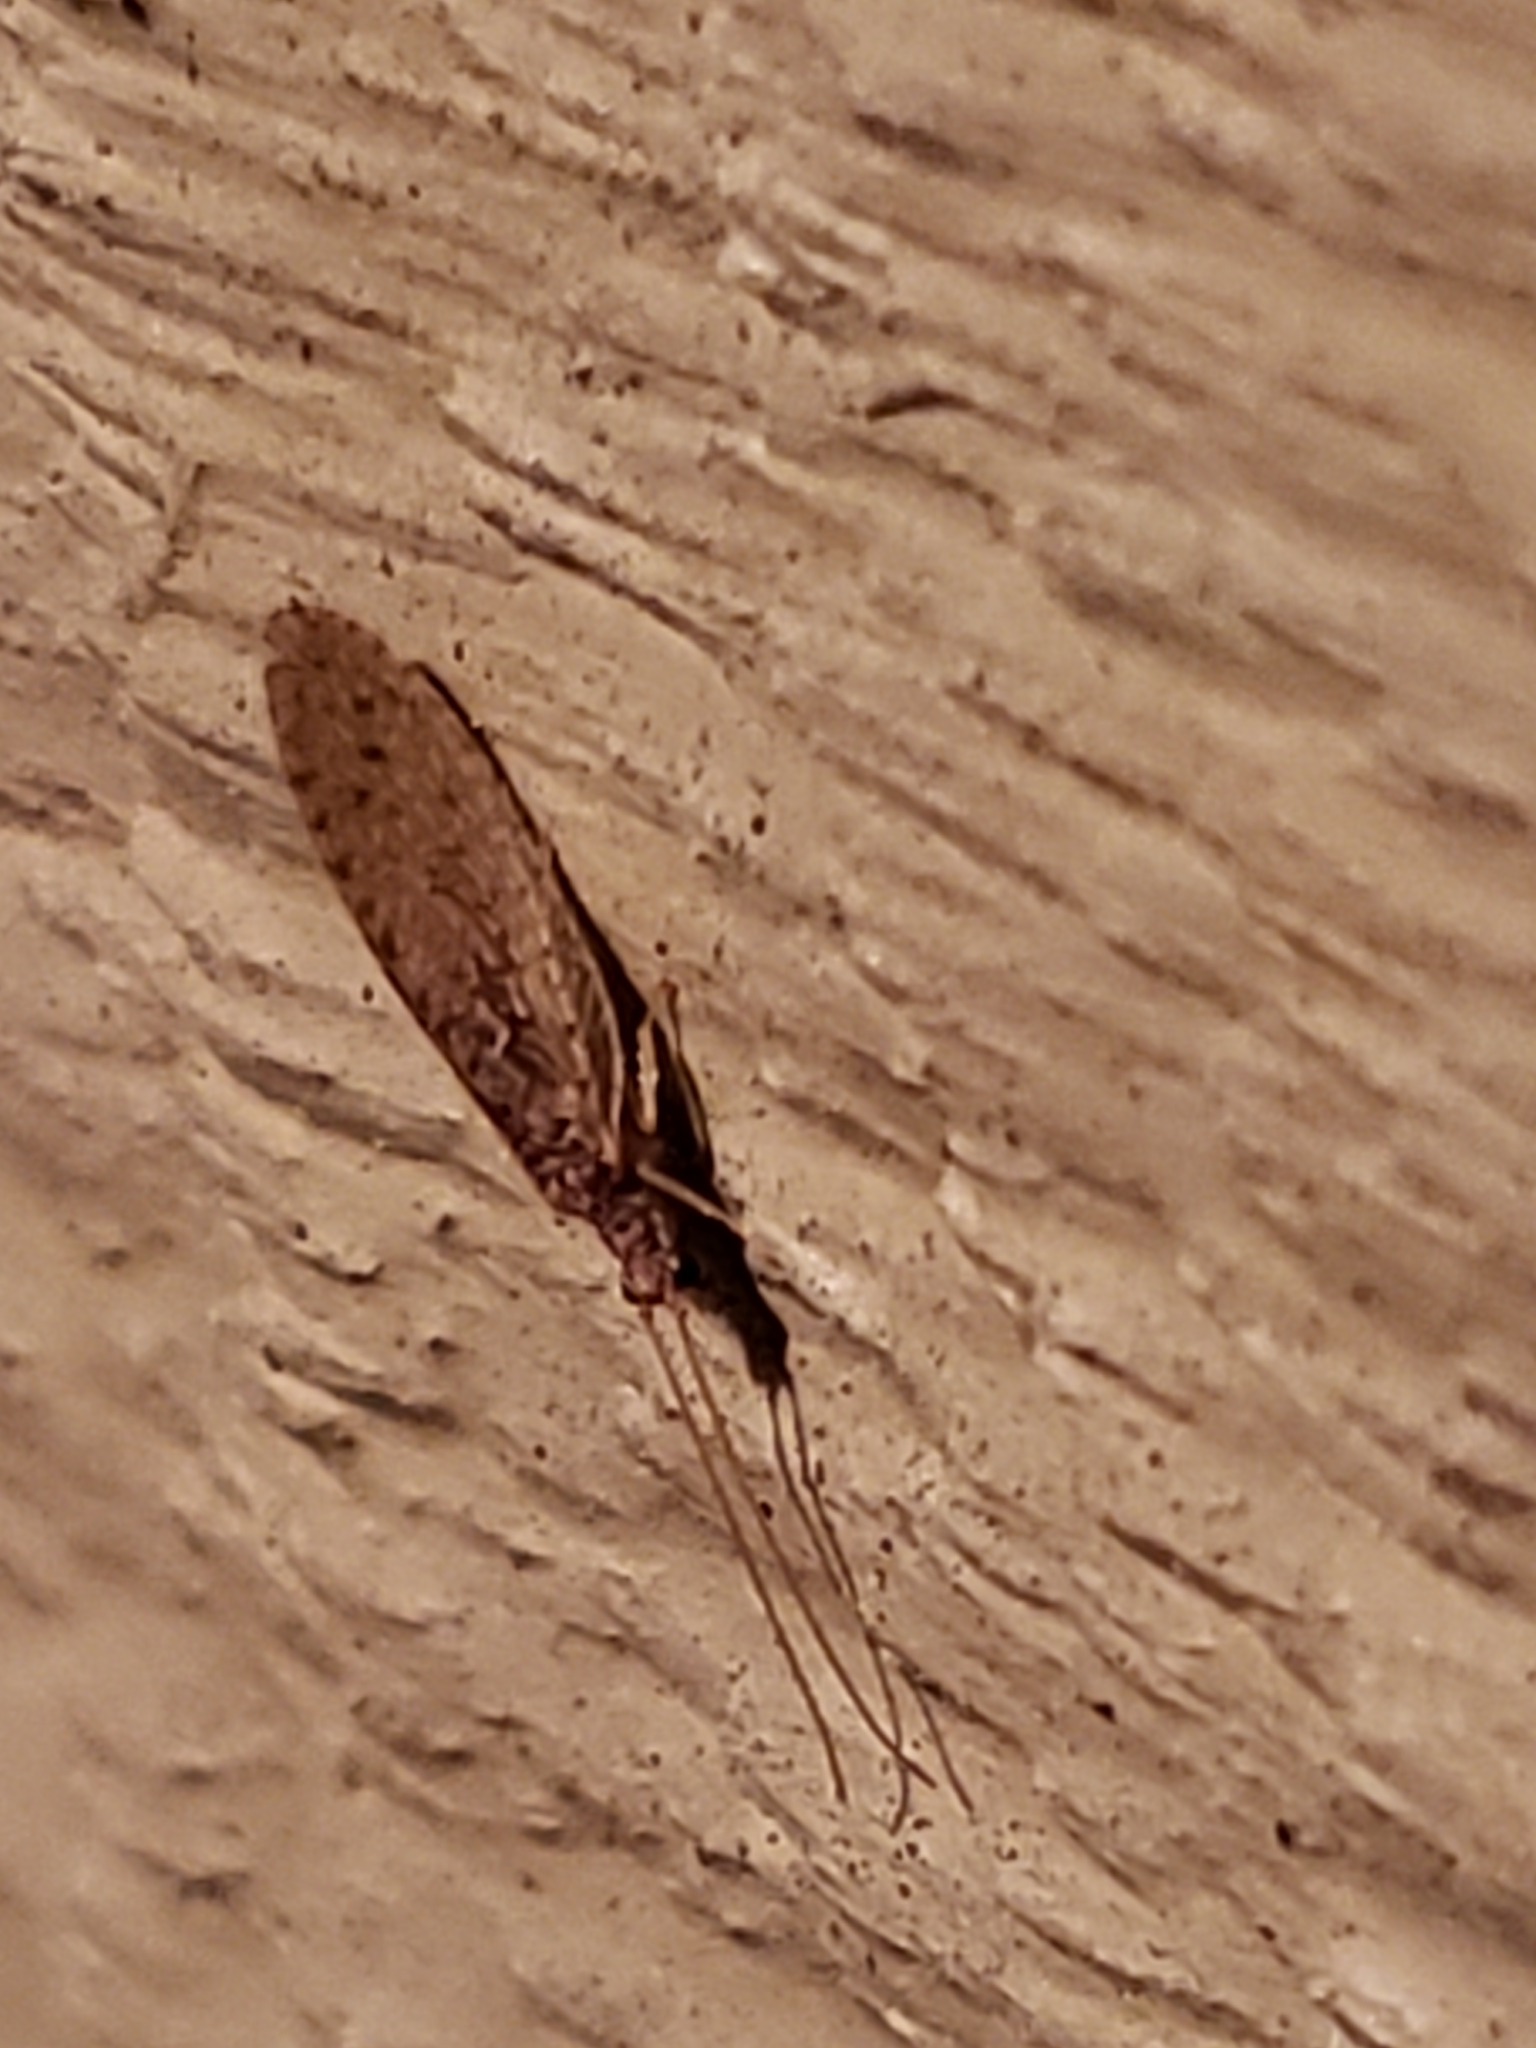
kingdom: Animalia
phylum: Arthropoda
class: Insecta
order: Neuroptera
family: Hemerobiidae
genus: Micromus
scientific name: Micromus subanticus
